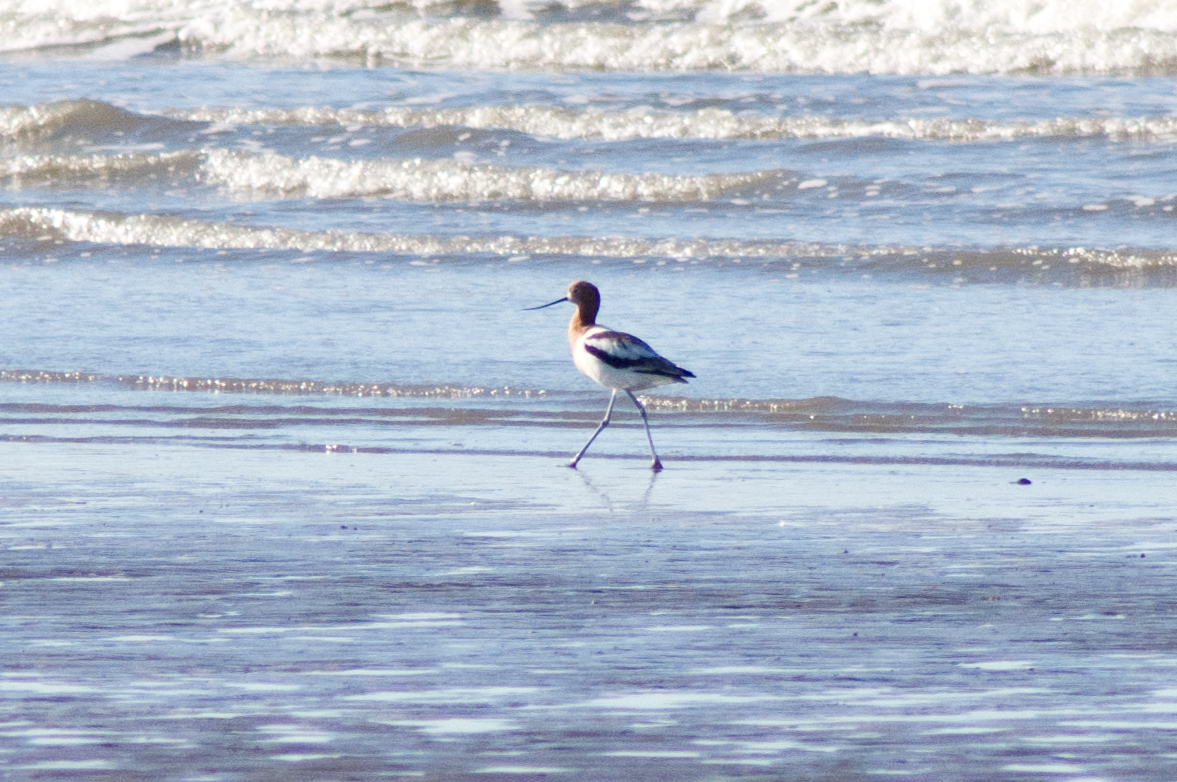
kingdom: Animalia
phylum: Chordata
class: Aves
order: Charadriiformes
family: Recurvirostridae
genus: Recurvirostra
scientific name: Recurvirostra americana
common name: American avocet
